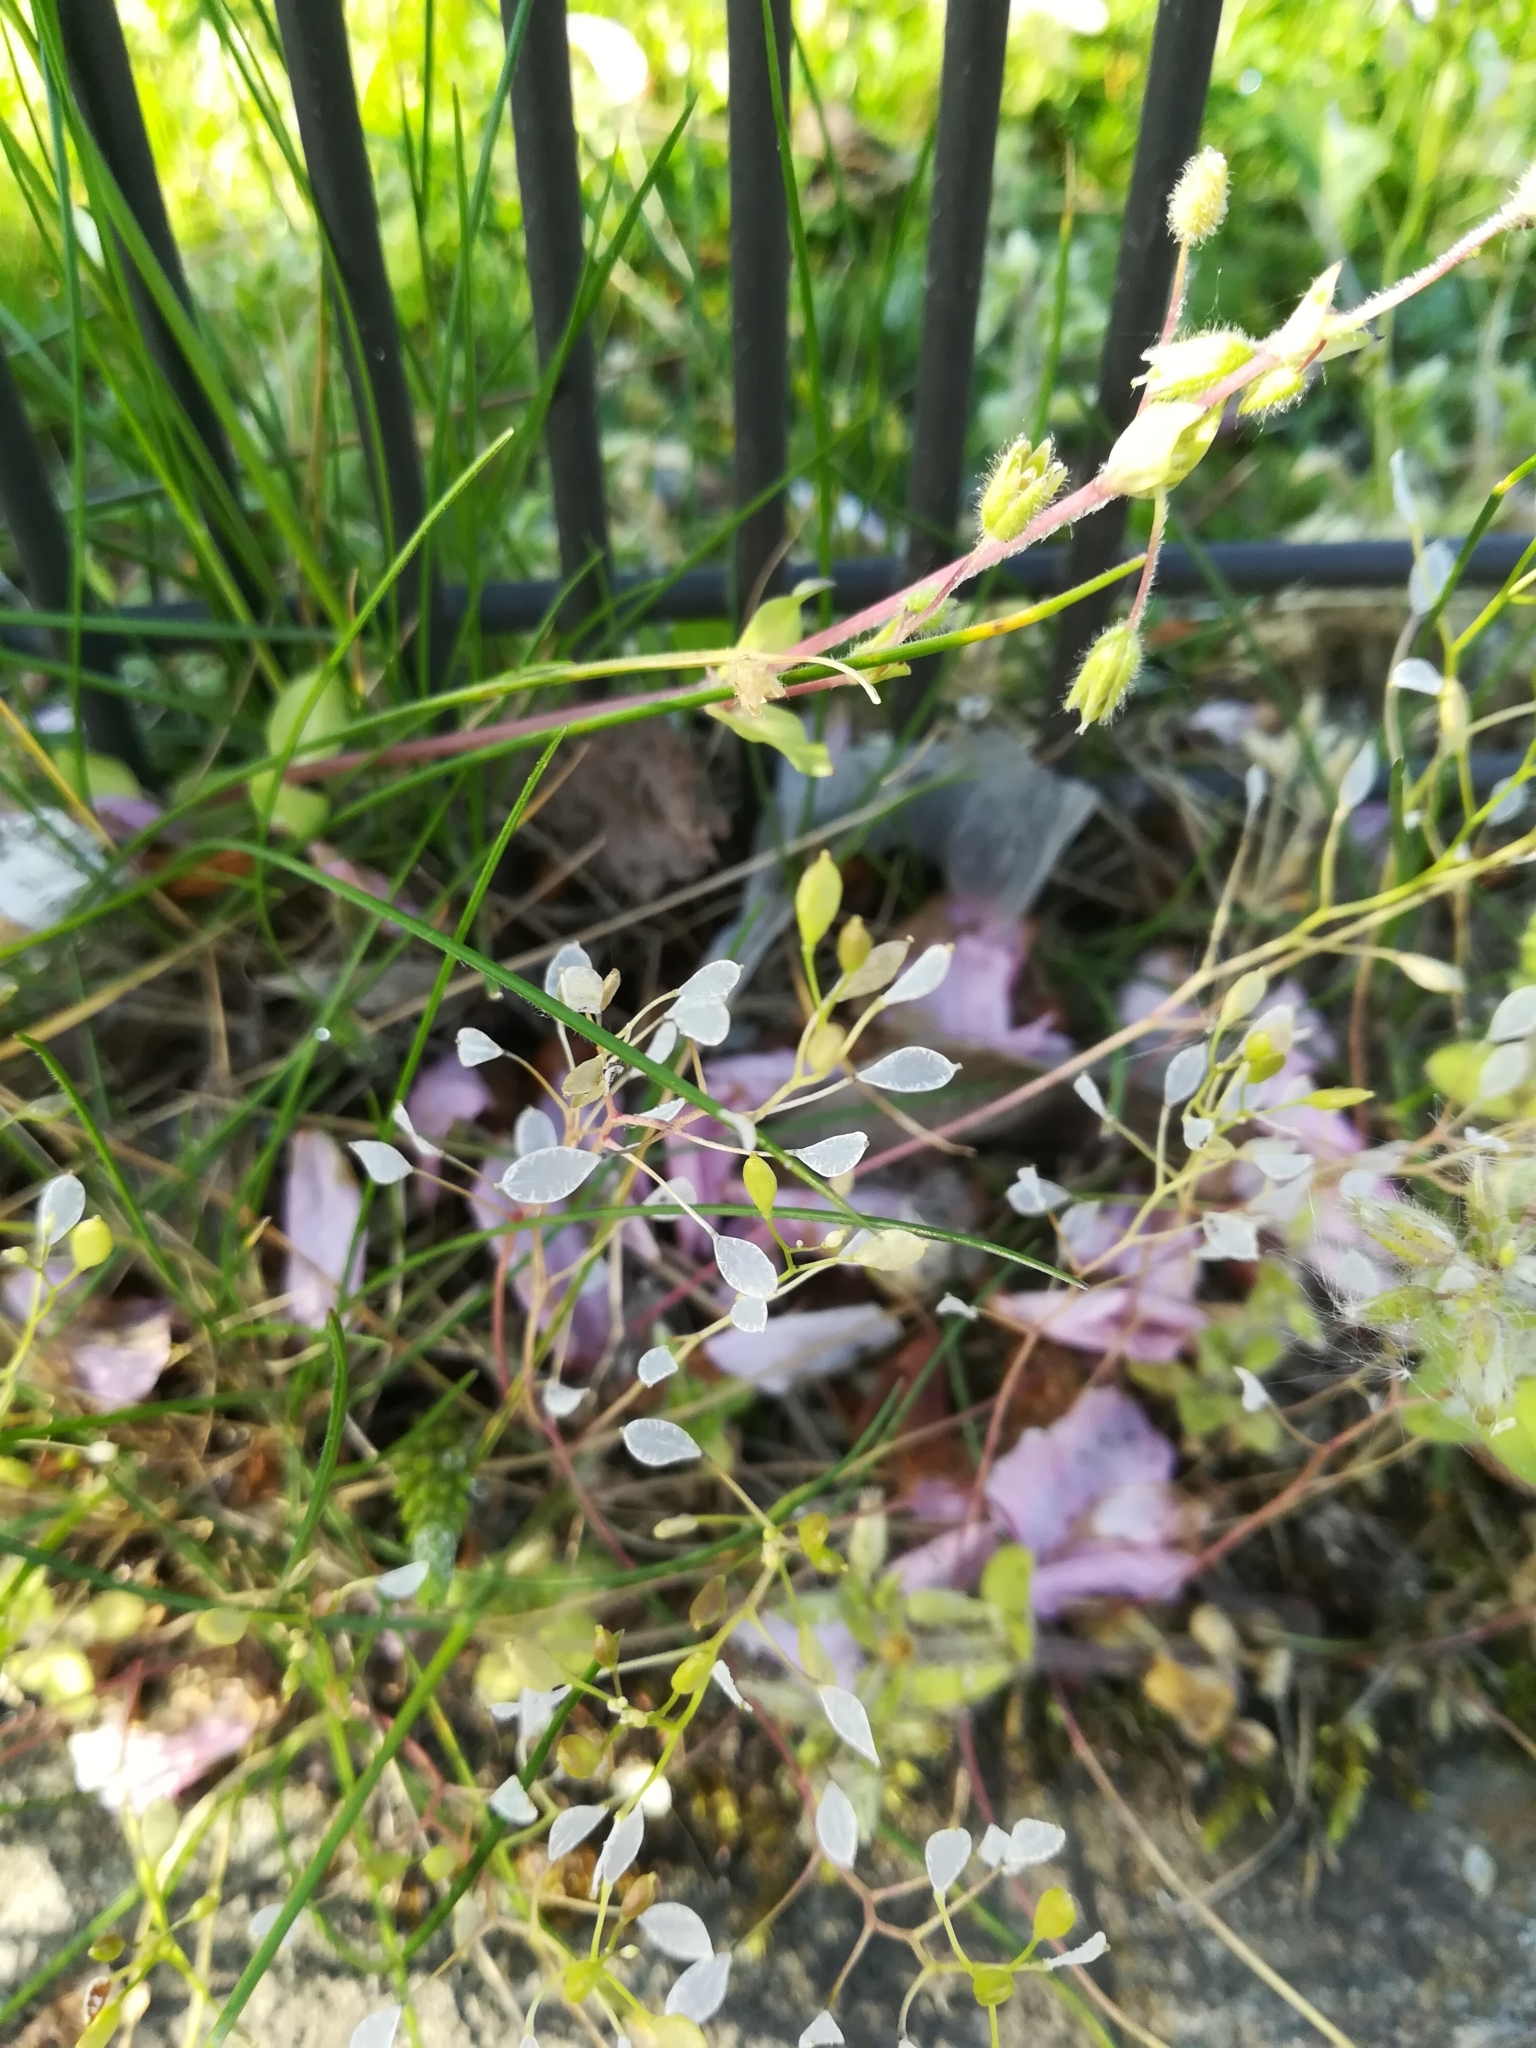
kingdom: Plantae
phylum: Tracheophyta
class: Magnoliopsida
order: Brassicales
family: Brassicaceae
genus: Draba
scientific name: Draba verna
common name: Spring draba
